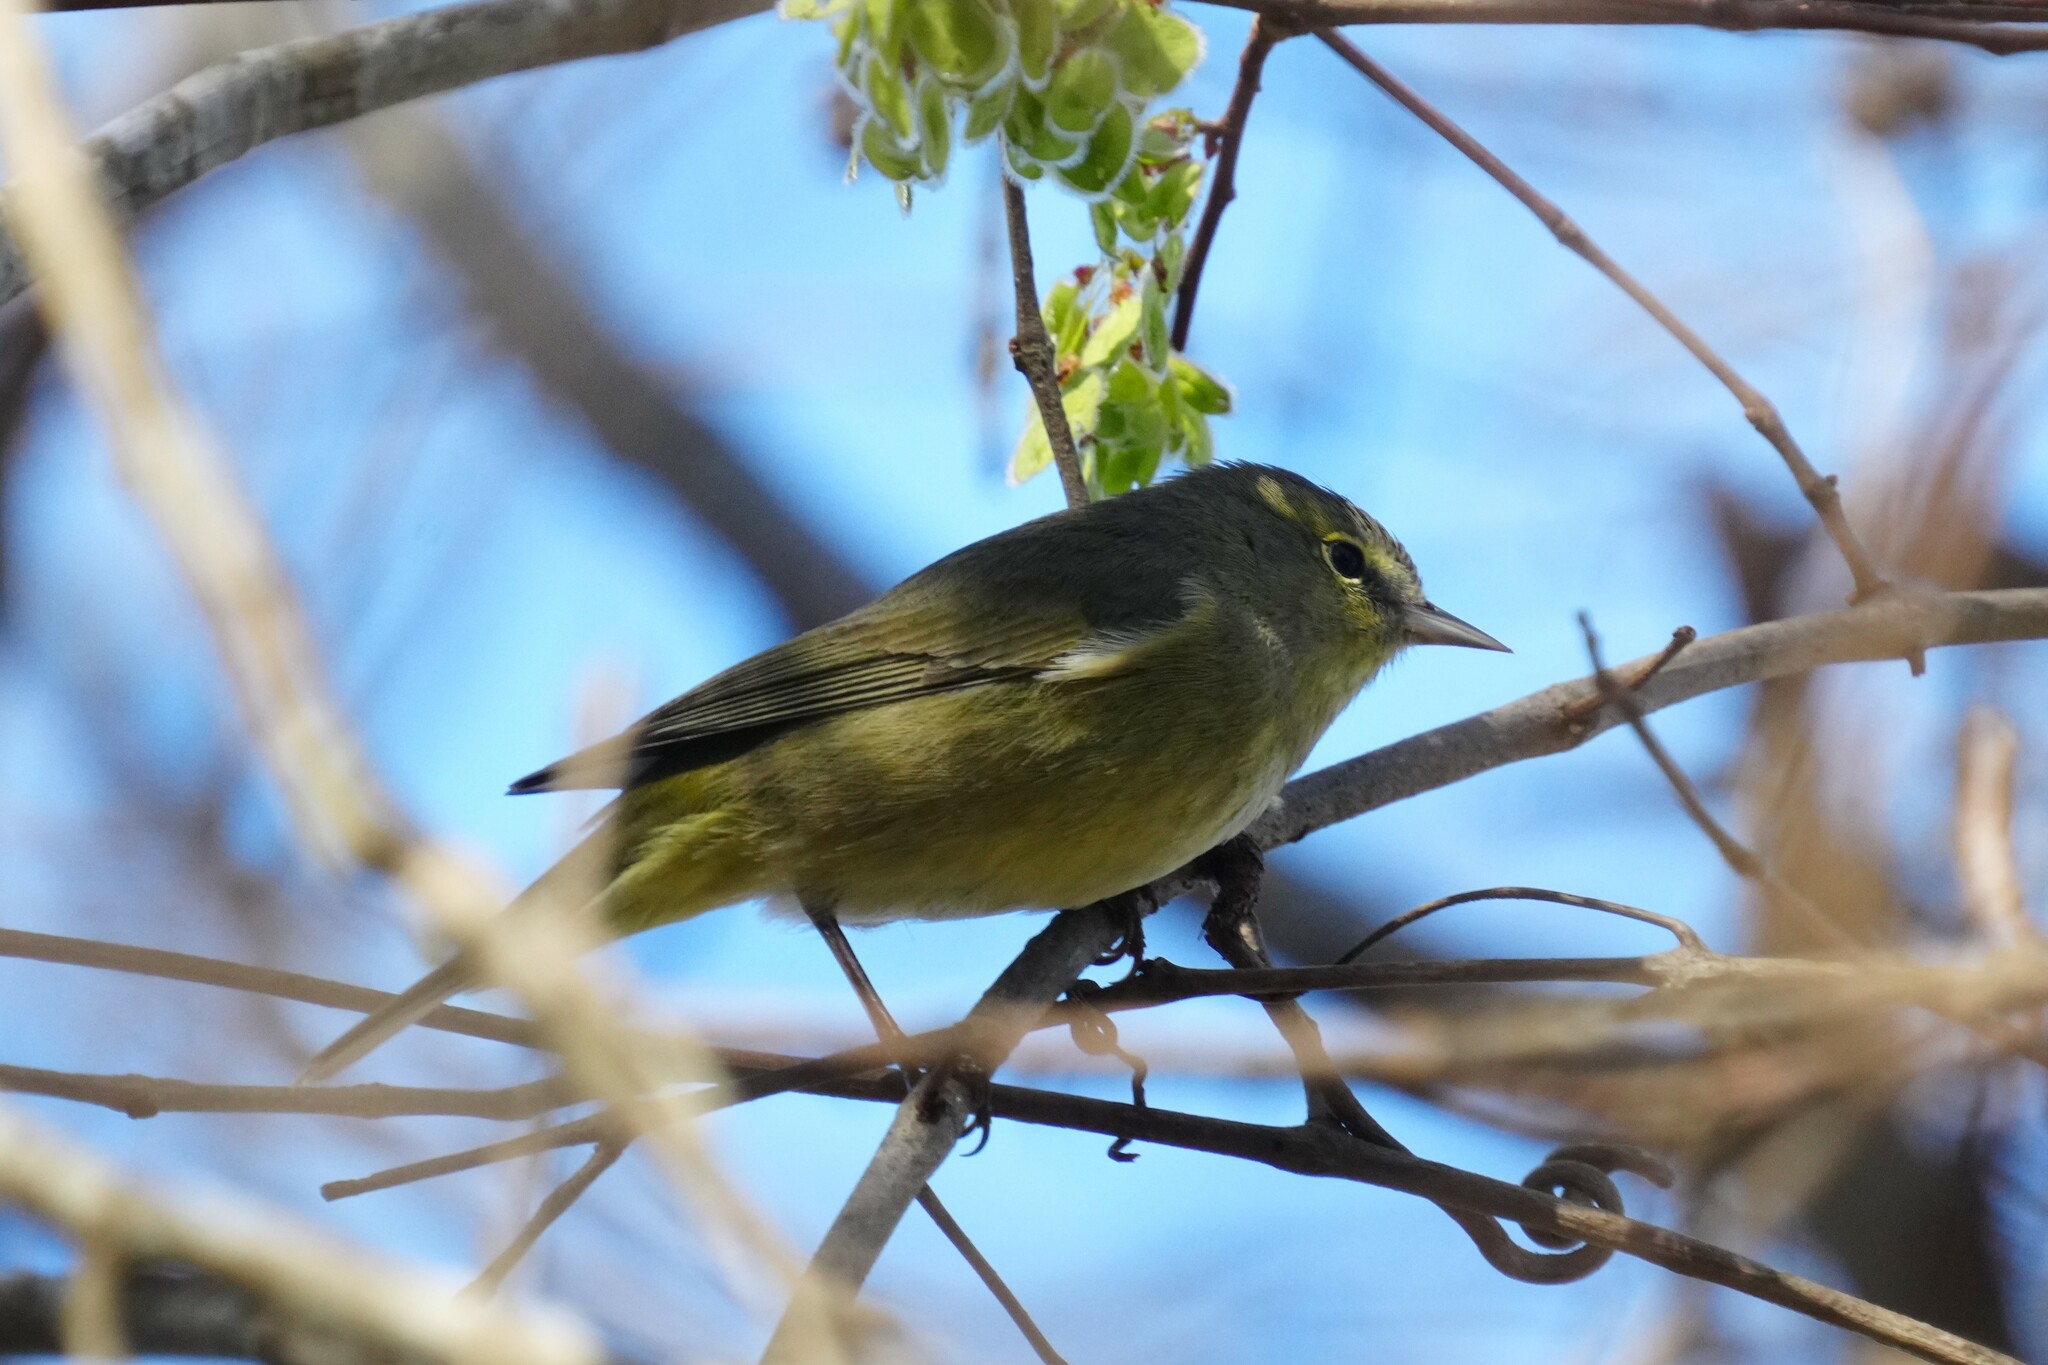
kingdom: Animalia
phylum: Chordata
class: Aves
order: Passeriformes
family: Parulidae
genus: Leiothlypis
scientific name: Leiothlypis celata
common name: Orange-crowned warbler
